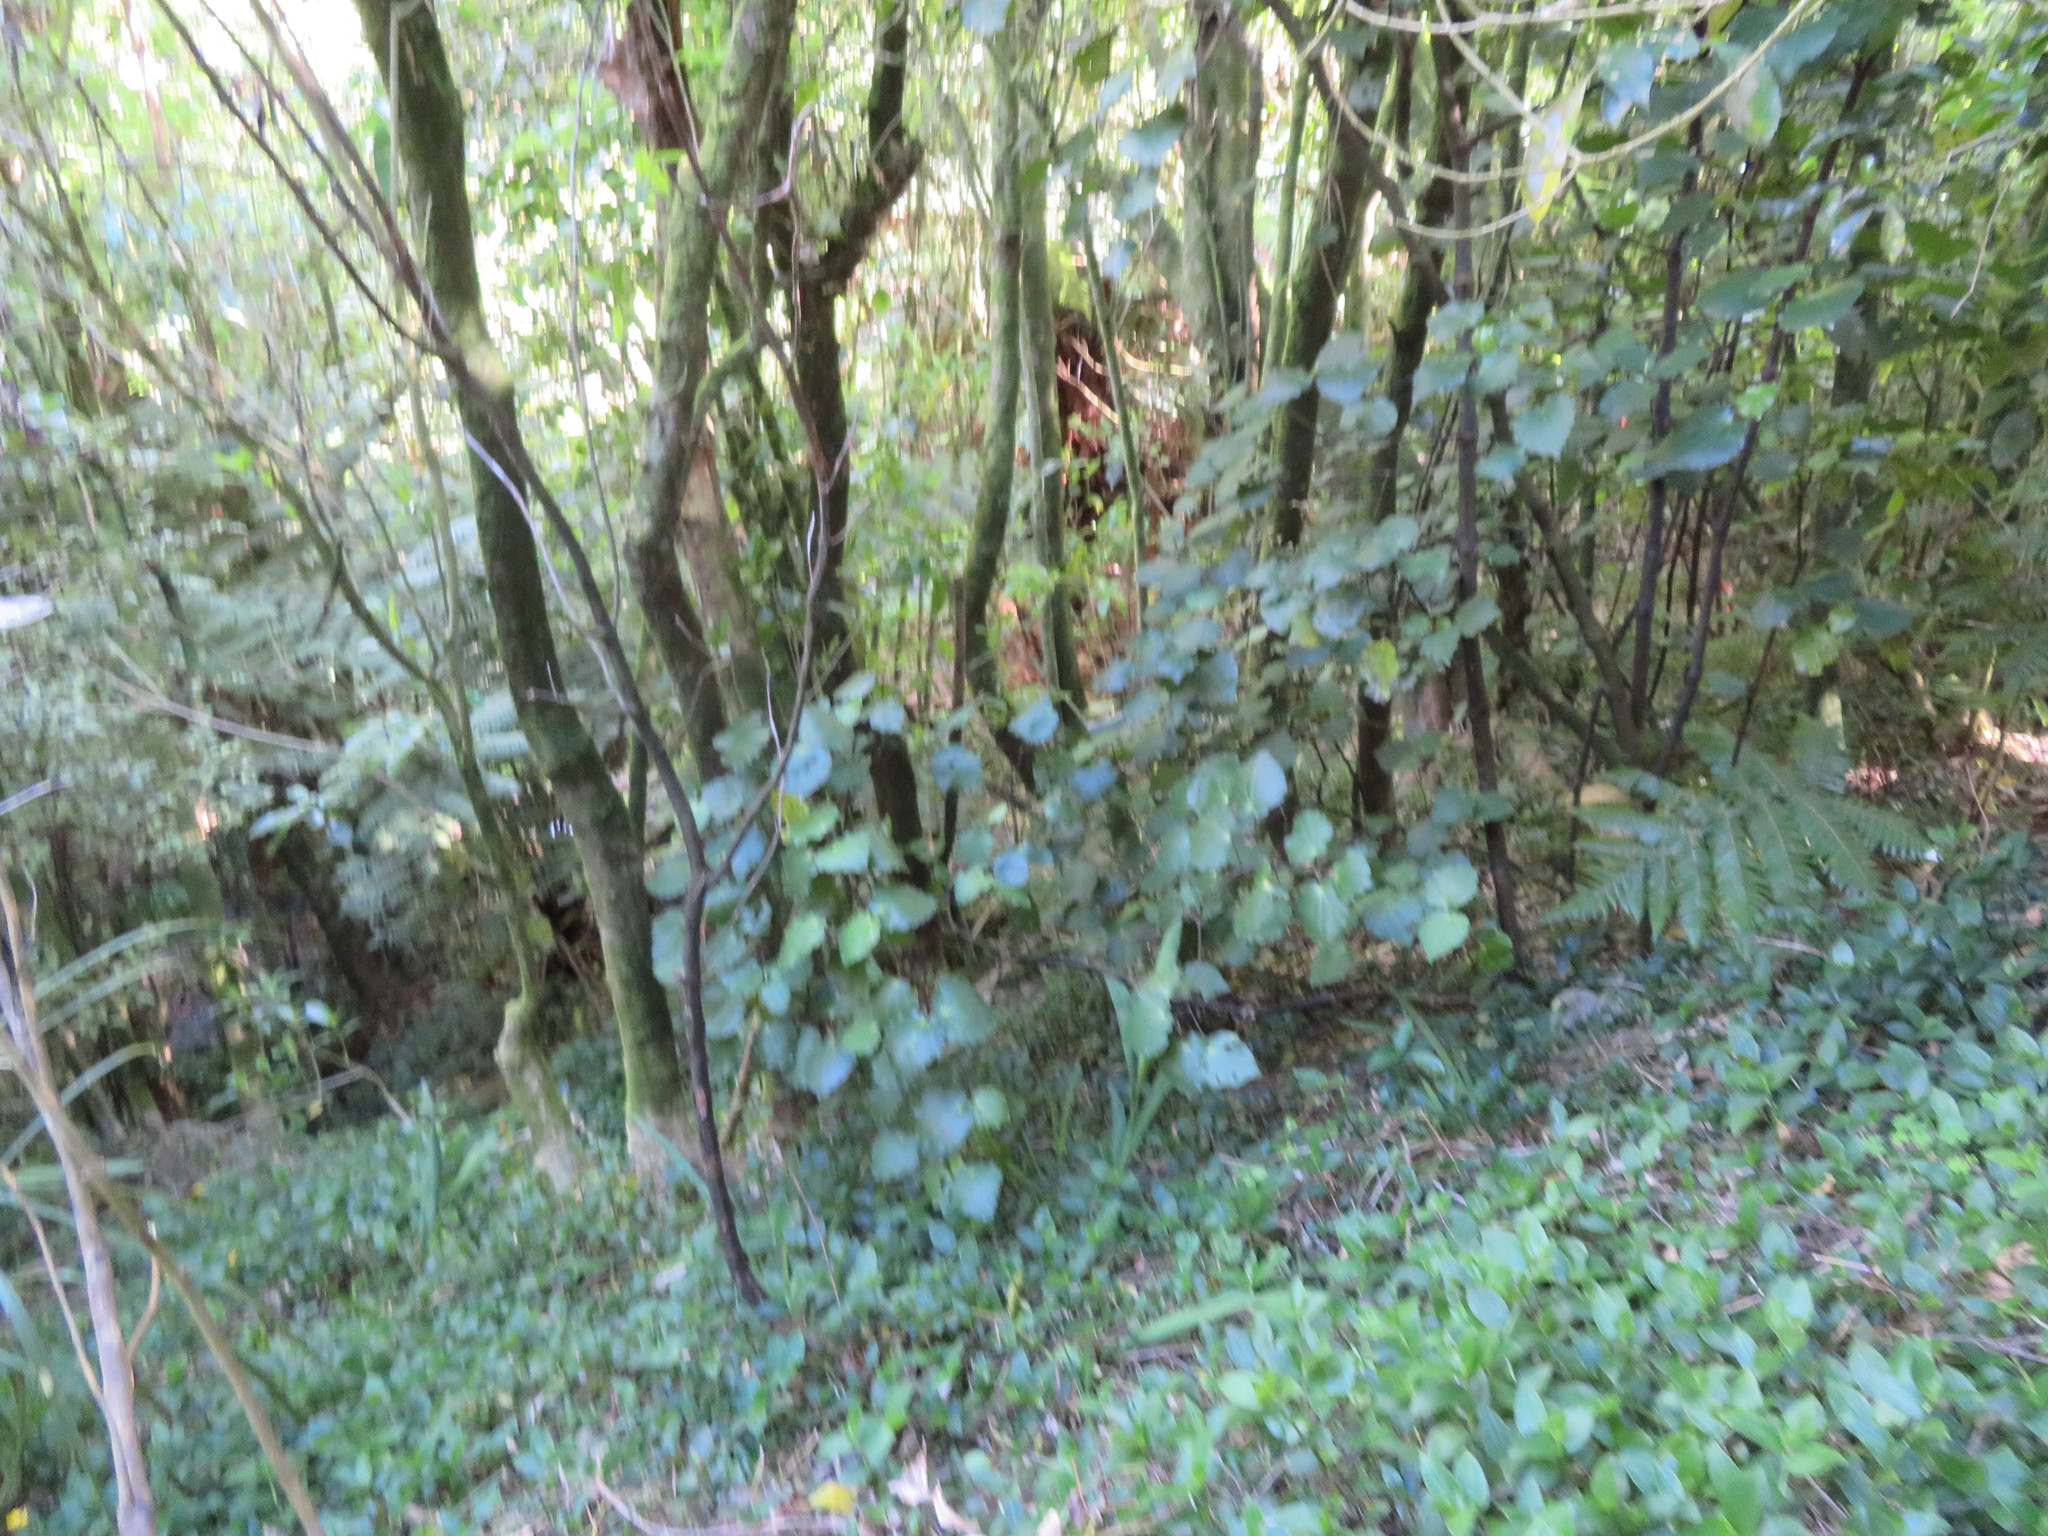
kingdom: Plantae
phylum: Tracheophyta
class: Liliopsida
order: Commelinales
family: Commelinaceae
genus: Tradescantia
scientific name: Tradescantia fluminensis
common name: Wandering-jew
